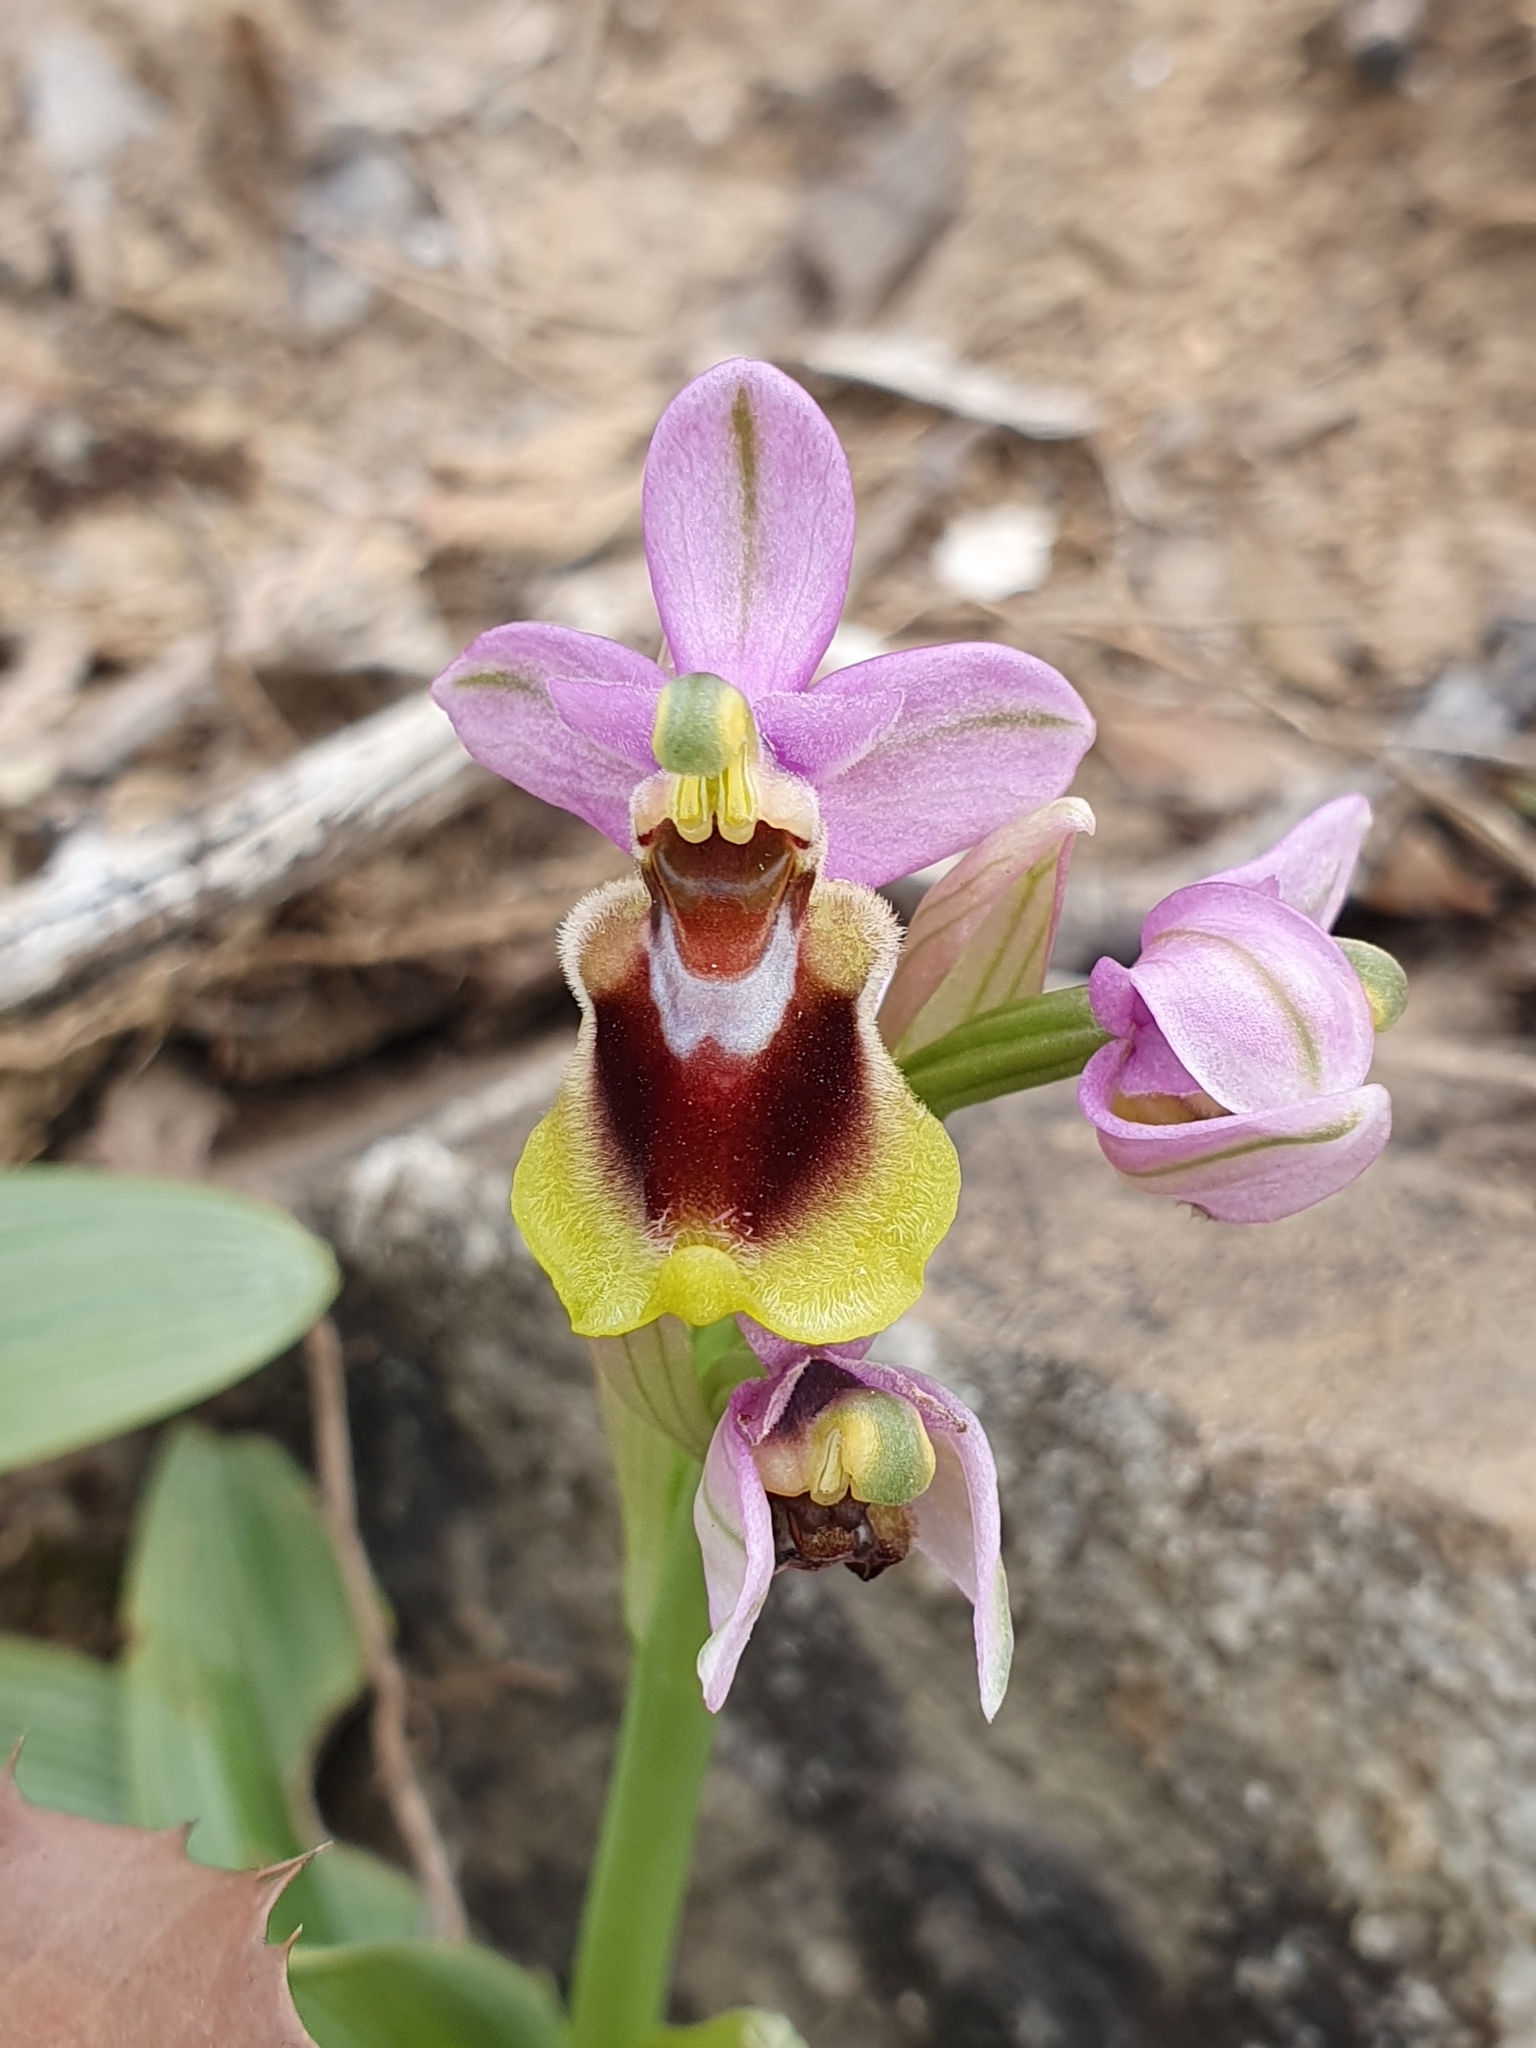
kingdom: Plantae
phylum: Tracheophyta
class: Liliopsida
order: Asparagales
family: Orchidaceae
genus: Ophrys
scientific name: Ophrys tenthredinifera
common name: Sawfly orchid
